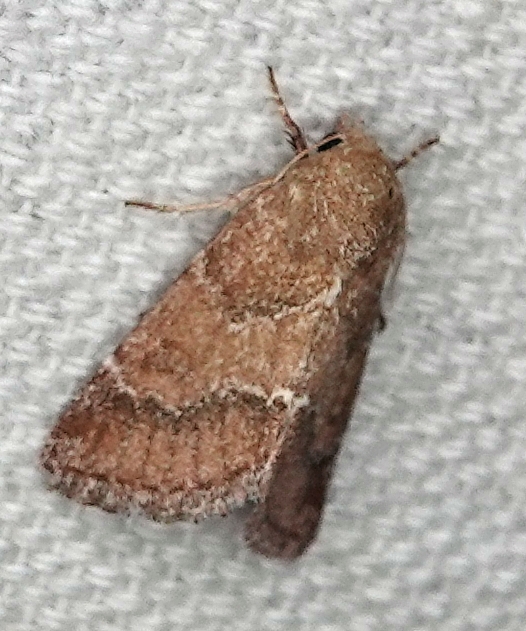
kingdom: Animalia
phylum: Arthropoda
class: Insecta
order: Lepidoptera
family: Noctuidae
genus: Schinia
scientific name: Schinia saturata
